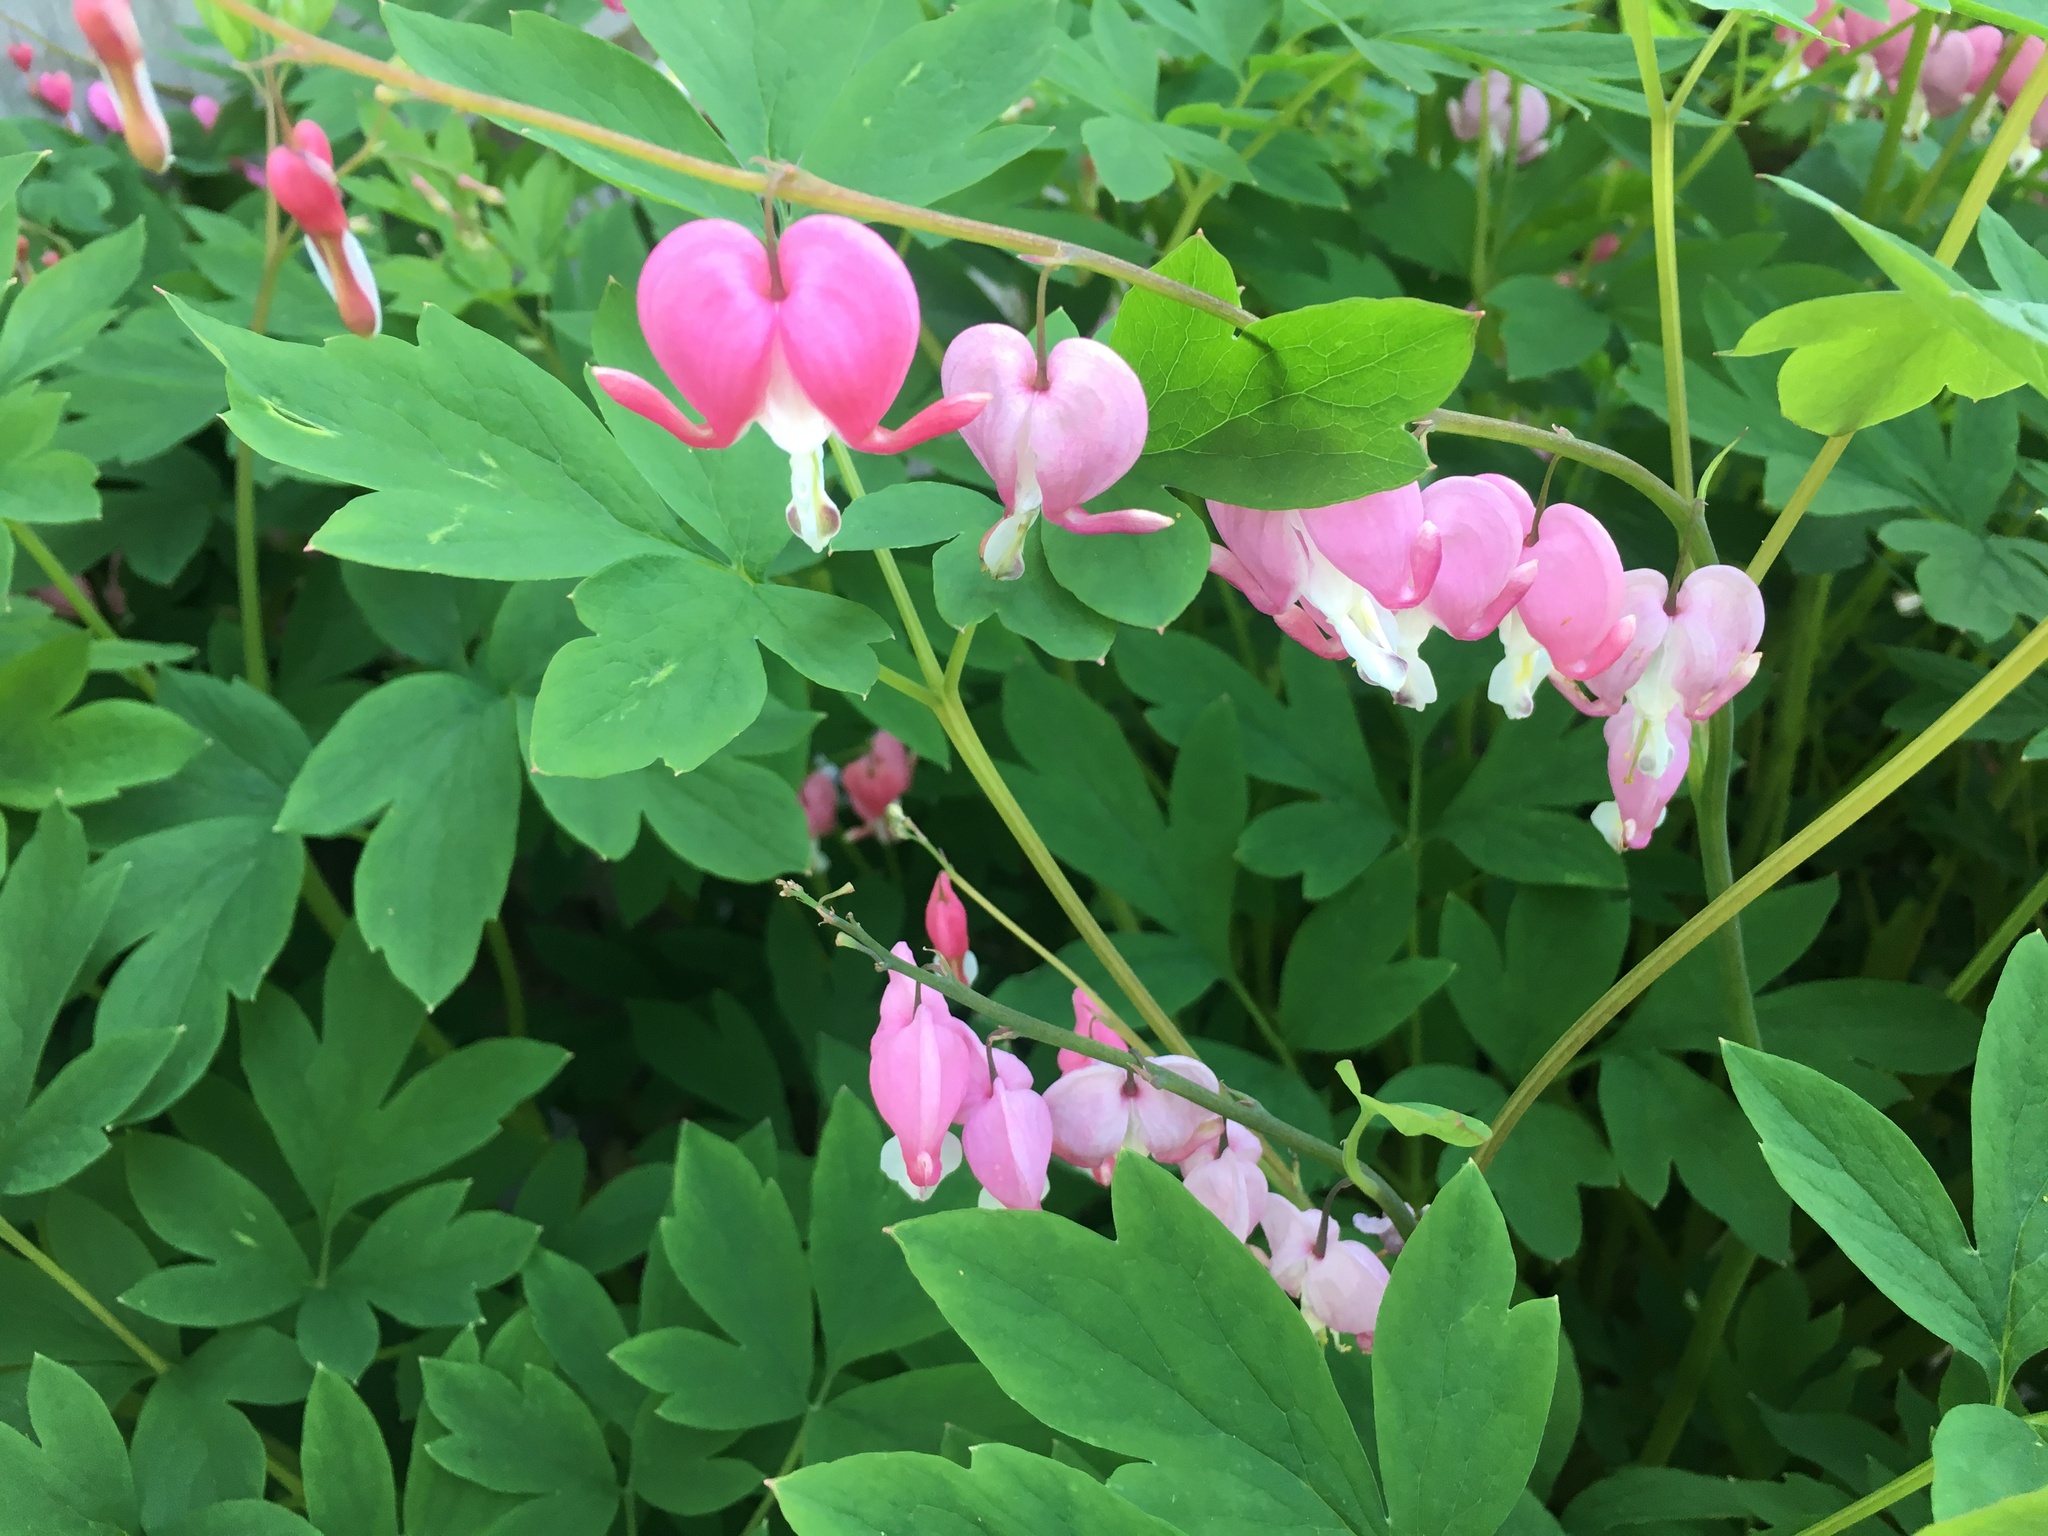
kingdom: Plantae
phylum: Tracheophyta
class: Magnoliopsida
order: Ranunculales
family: Papaveraceae
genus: Lamprocapnos
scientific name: Lamprocapnos spectabilis
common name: Asian bleeding-heart
